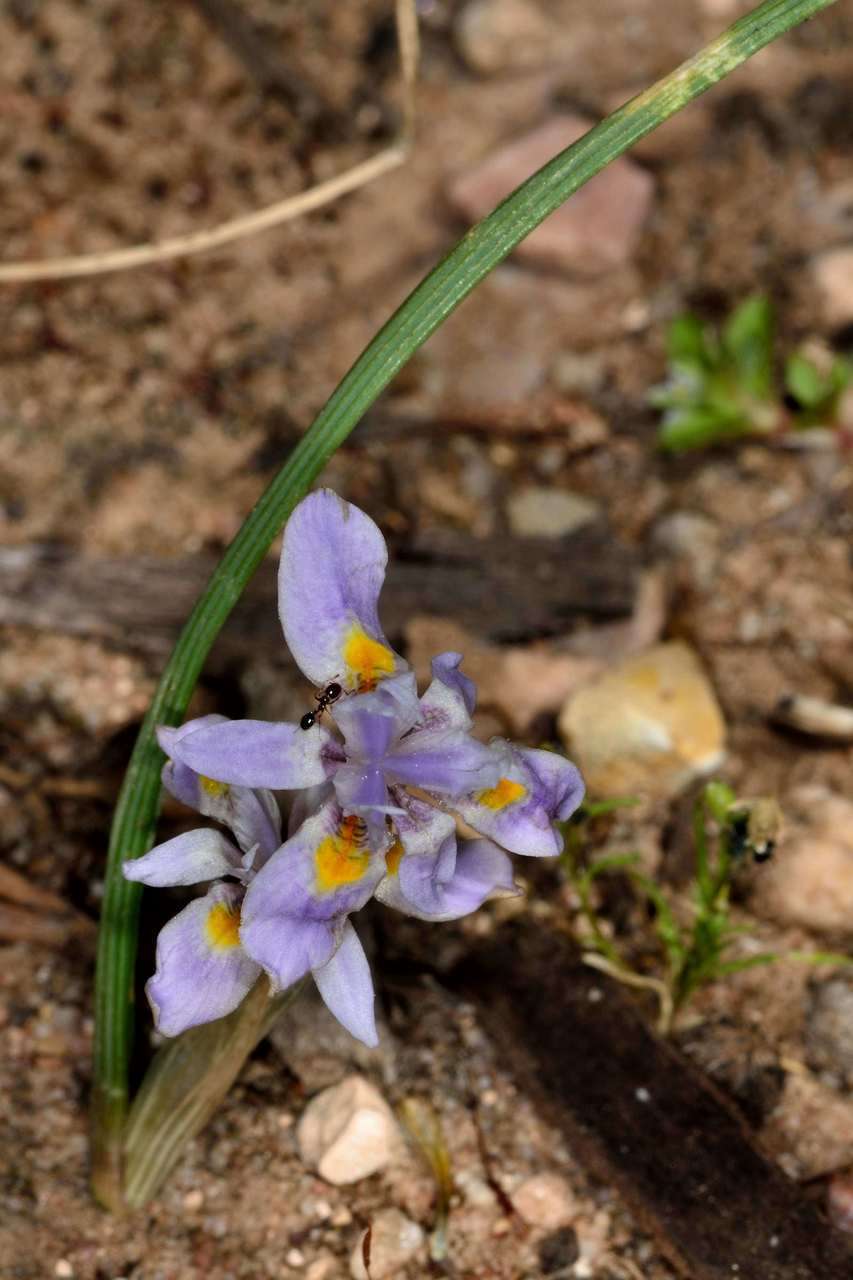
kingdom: Plantae
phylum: Tracheophyta
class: Liliopsida
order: Asparagales
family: Iridaceae
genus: Moraea
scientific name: Moraea setifolia
